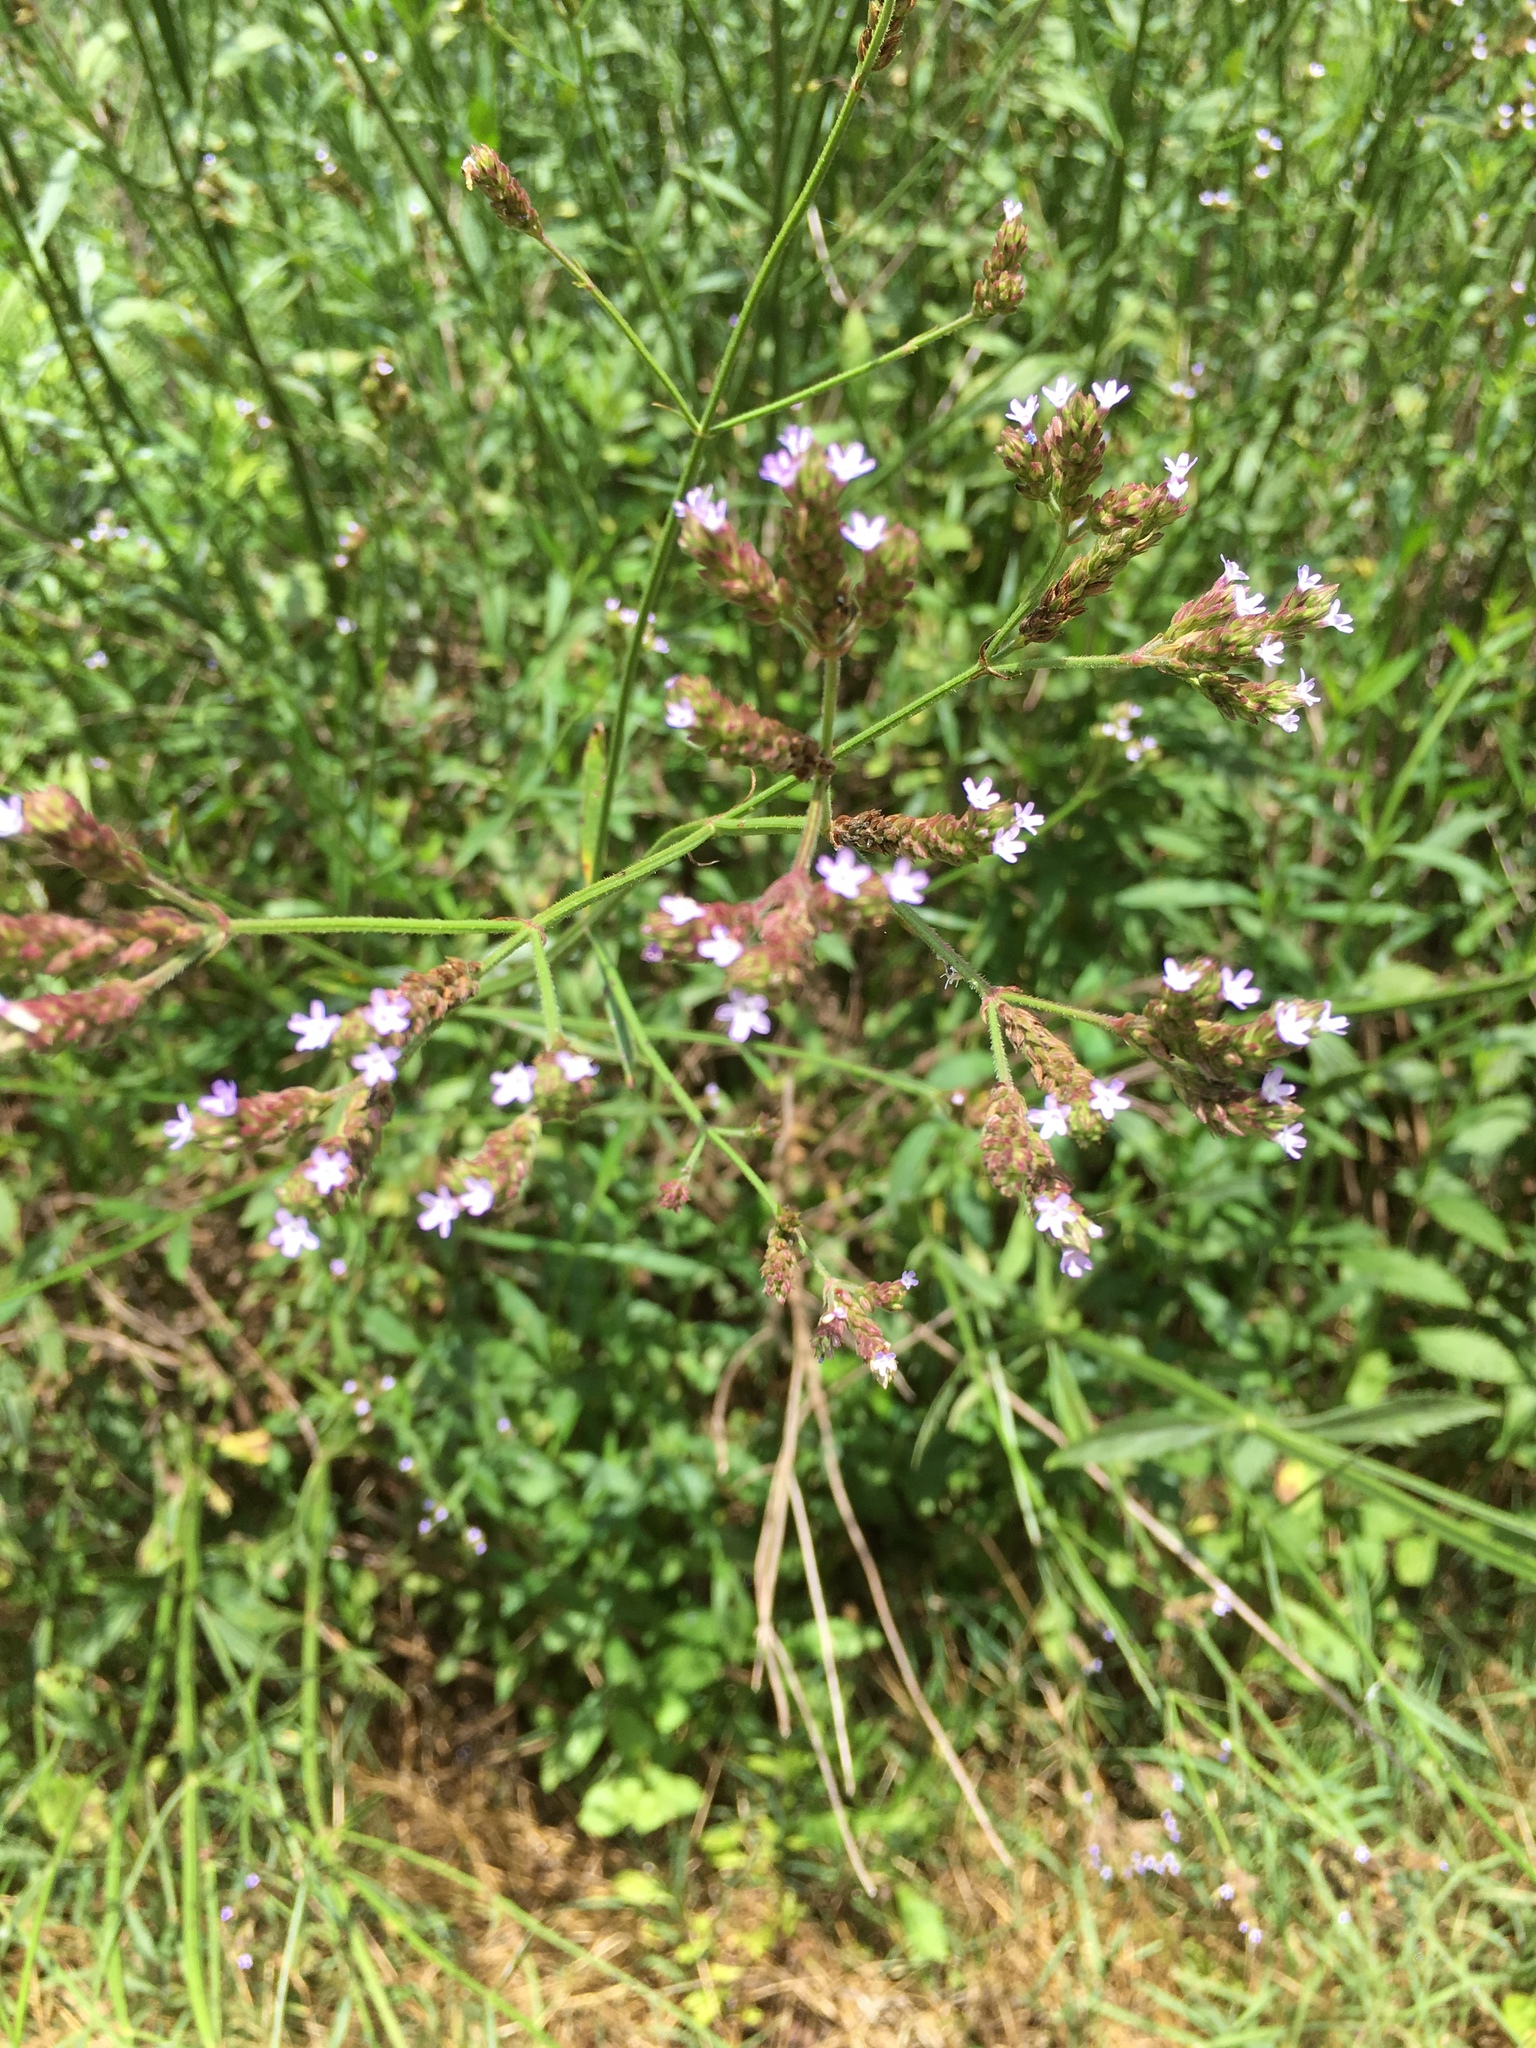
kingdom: Plantae
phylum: Tracheophyta
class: Magnoliopsida
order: Lamiales
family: Verbenaceae
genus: Verbena
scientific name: Verbena brasiliensis
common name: Brazilian vervain
